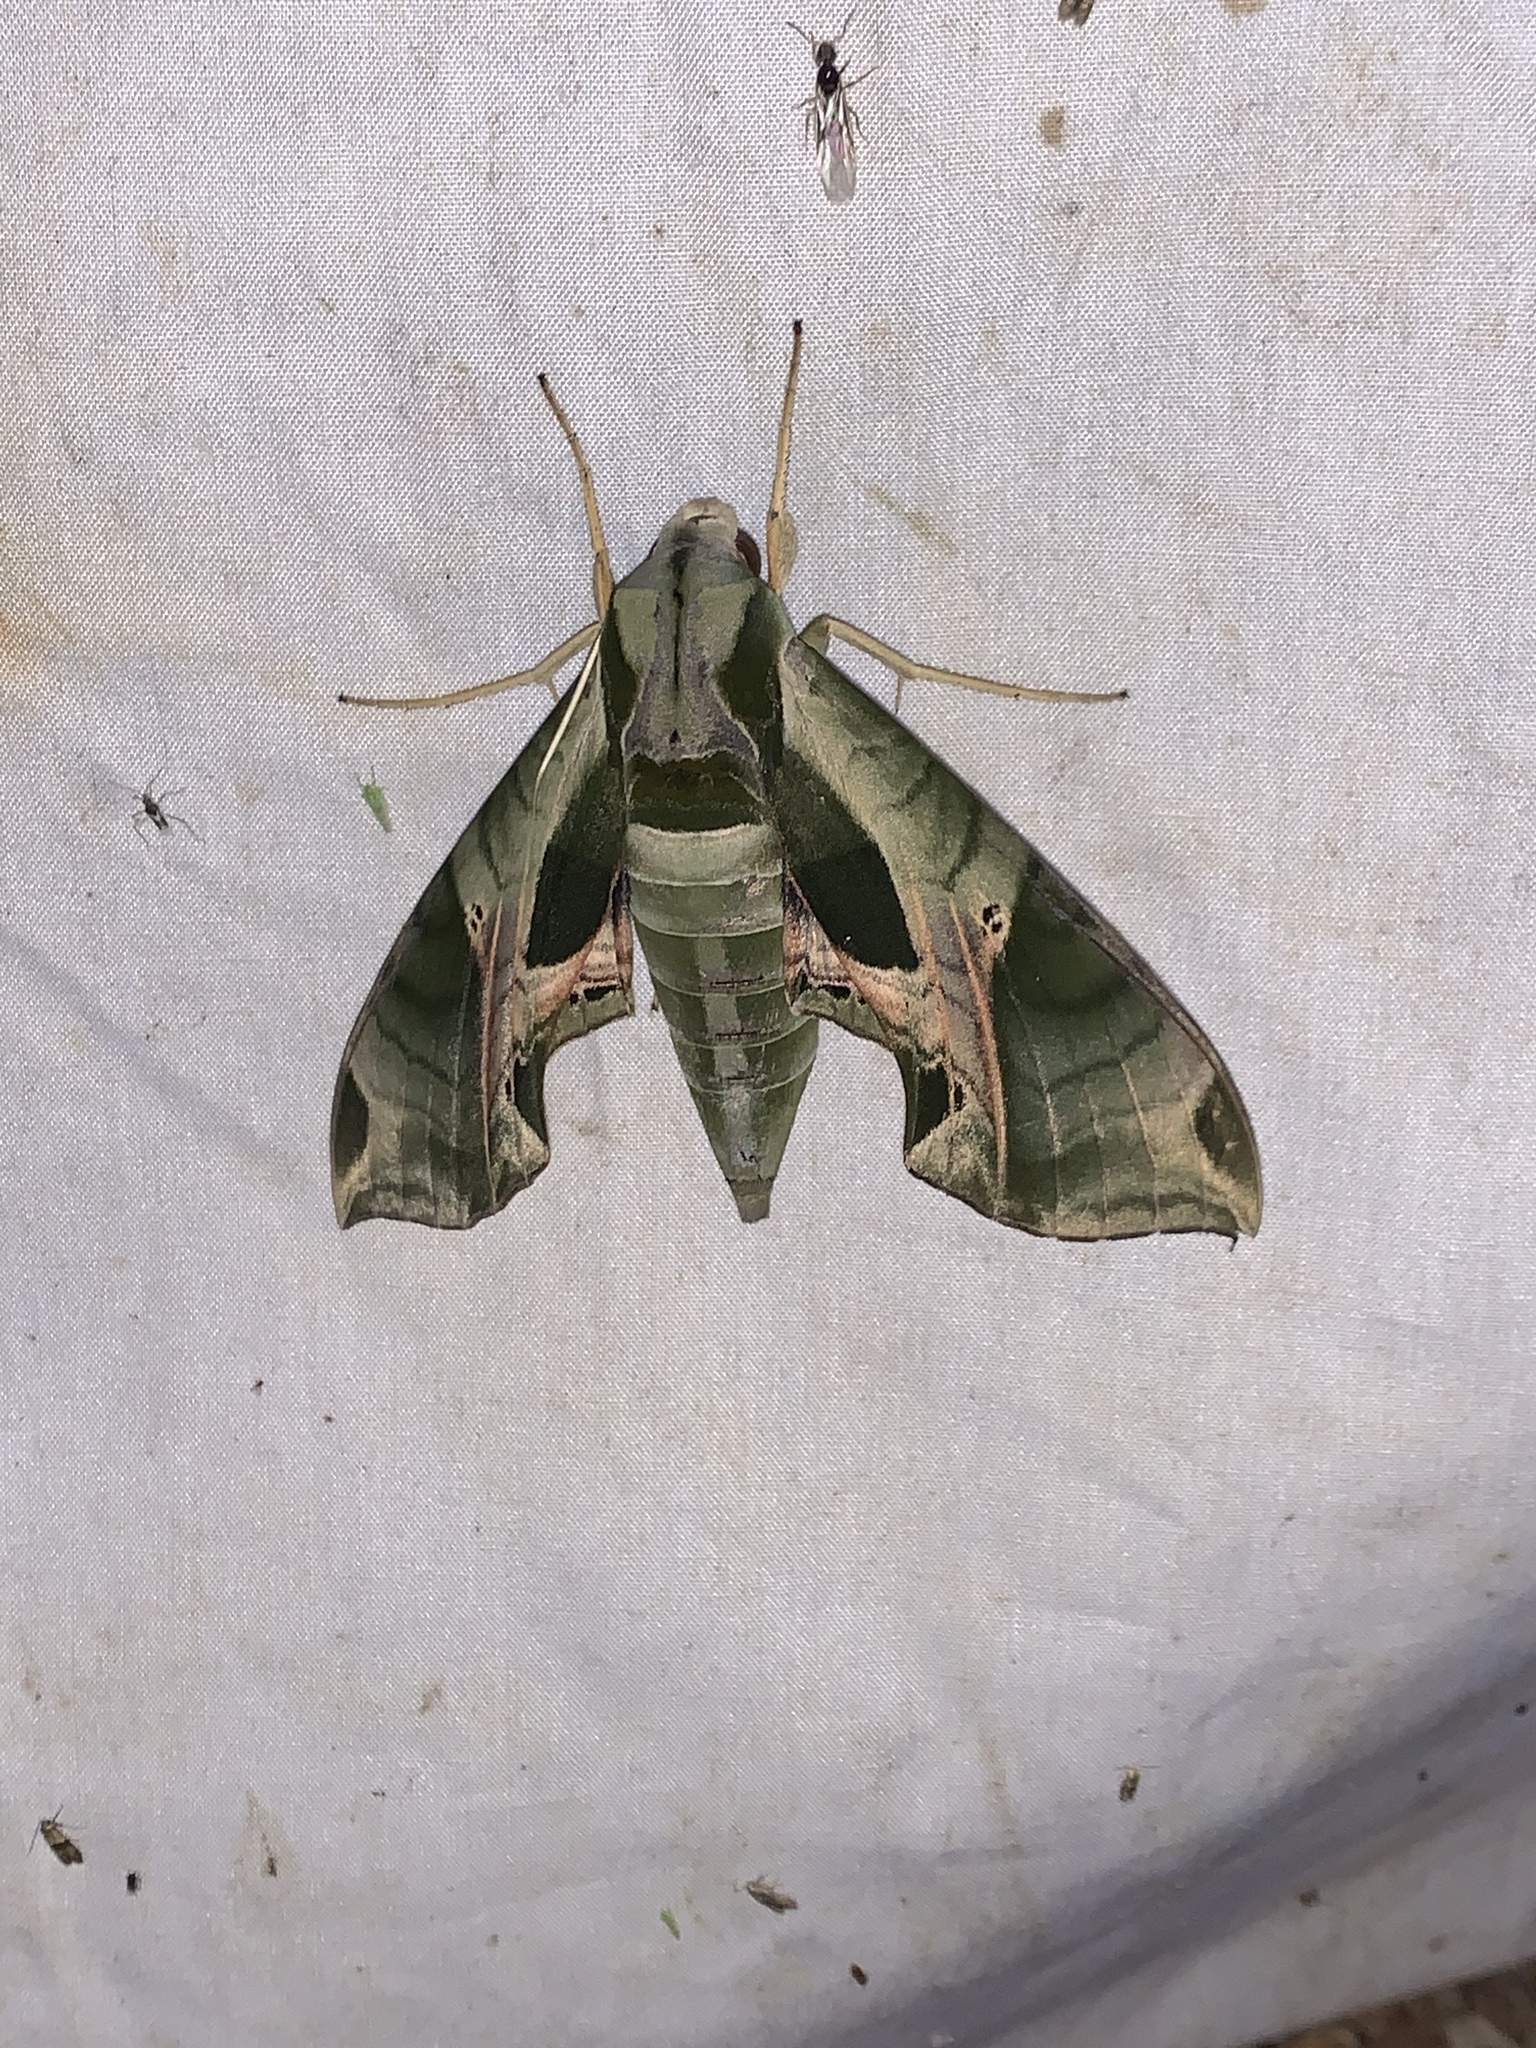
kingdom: Animalia
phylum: Arthropoda
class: Insecta
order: Lepidoptera
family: Sphingidae
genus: Eumorpha
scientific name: Eumorpha pandorus
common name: Pandora sphinx
